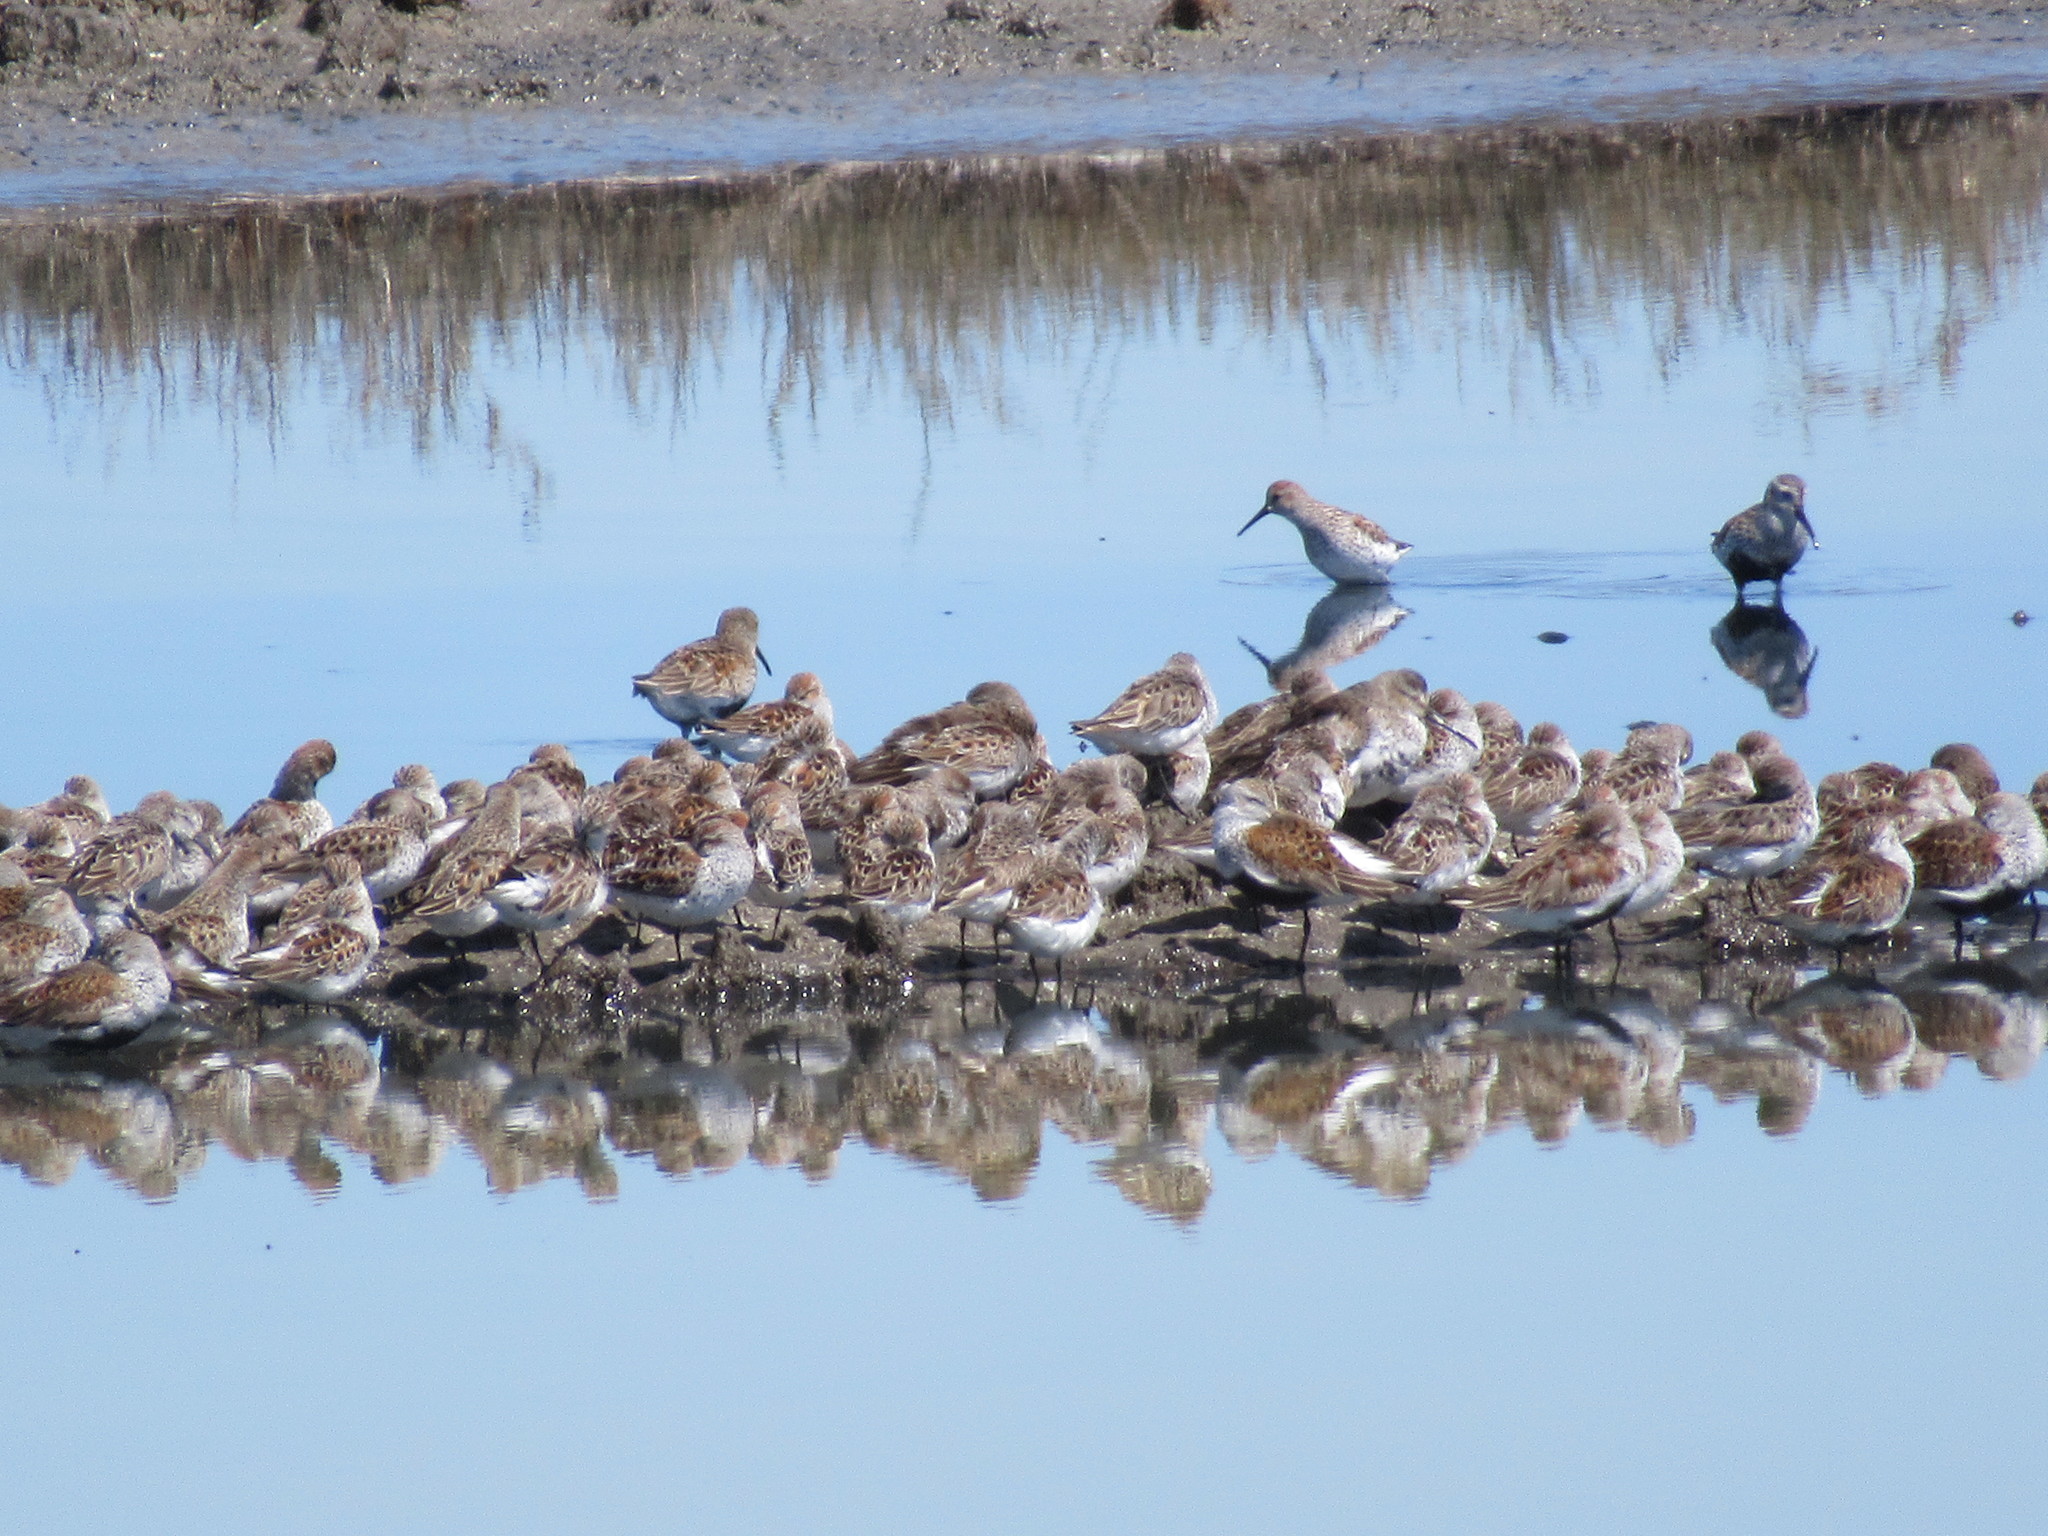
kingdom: Animalia
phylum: Chordata
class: Aves
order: Charadriiformes
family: Scolopacidae
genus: Calidris
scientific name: Calidris alpina
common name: Dunlin
